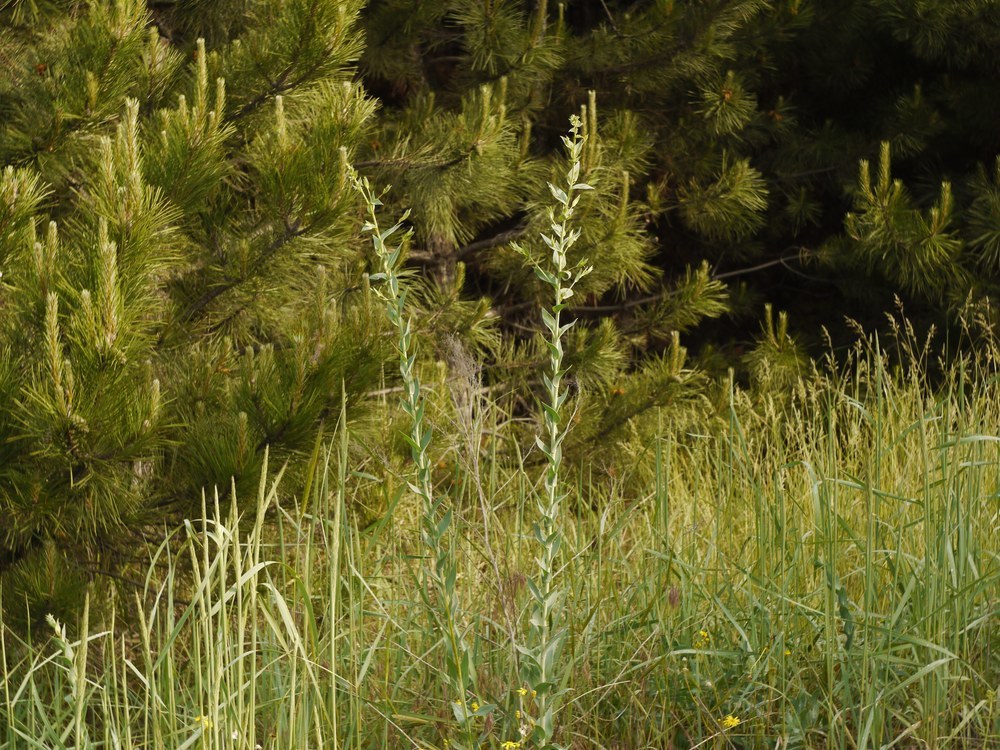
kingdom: Plantae
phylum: Tracheophyta
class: Magnoliopsida
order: Lamiales
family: Plantaginaceae
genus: Linaria
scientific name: Linaria genistifolia
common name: Broomleaf toadflax
